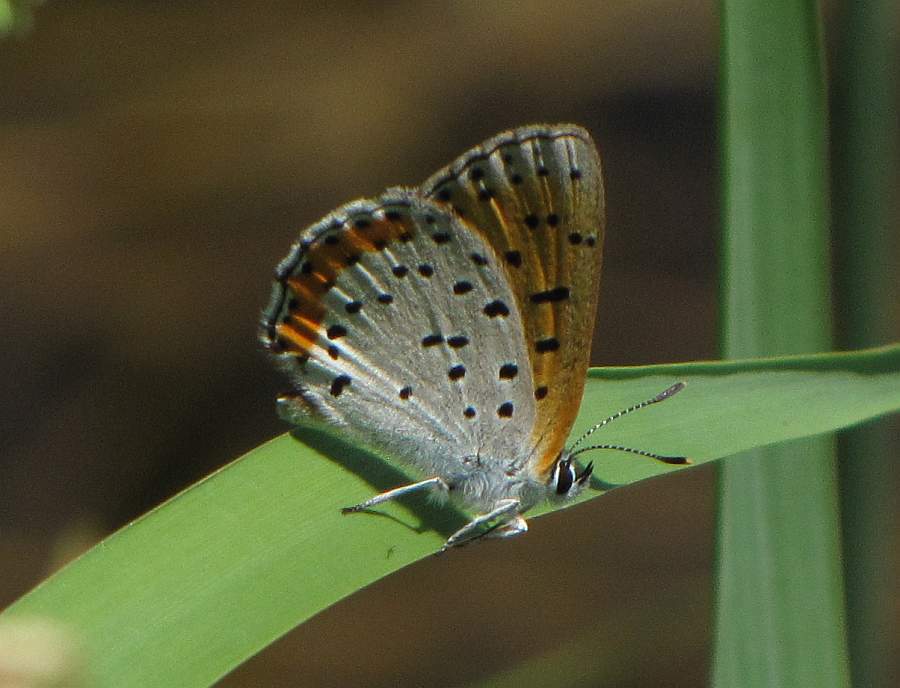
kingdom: Animalia
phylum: Arthropoda
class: Insecta
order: Lepidoptera
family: Lycaenidae
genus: Tharsalea
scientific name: Tharsalea hyllus
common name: Bronze copper
